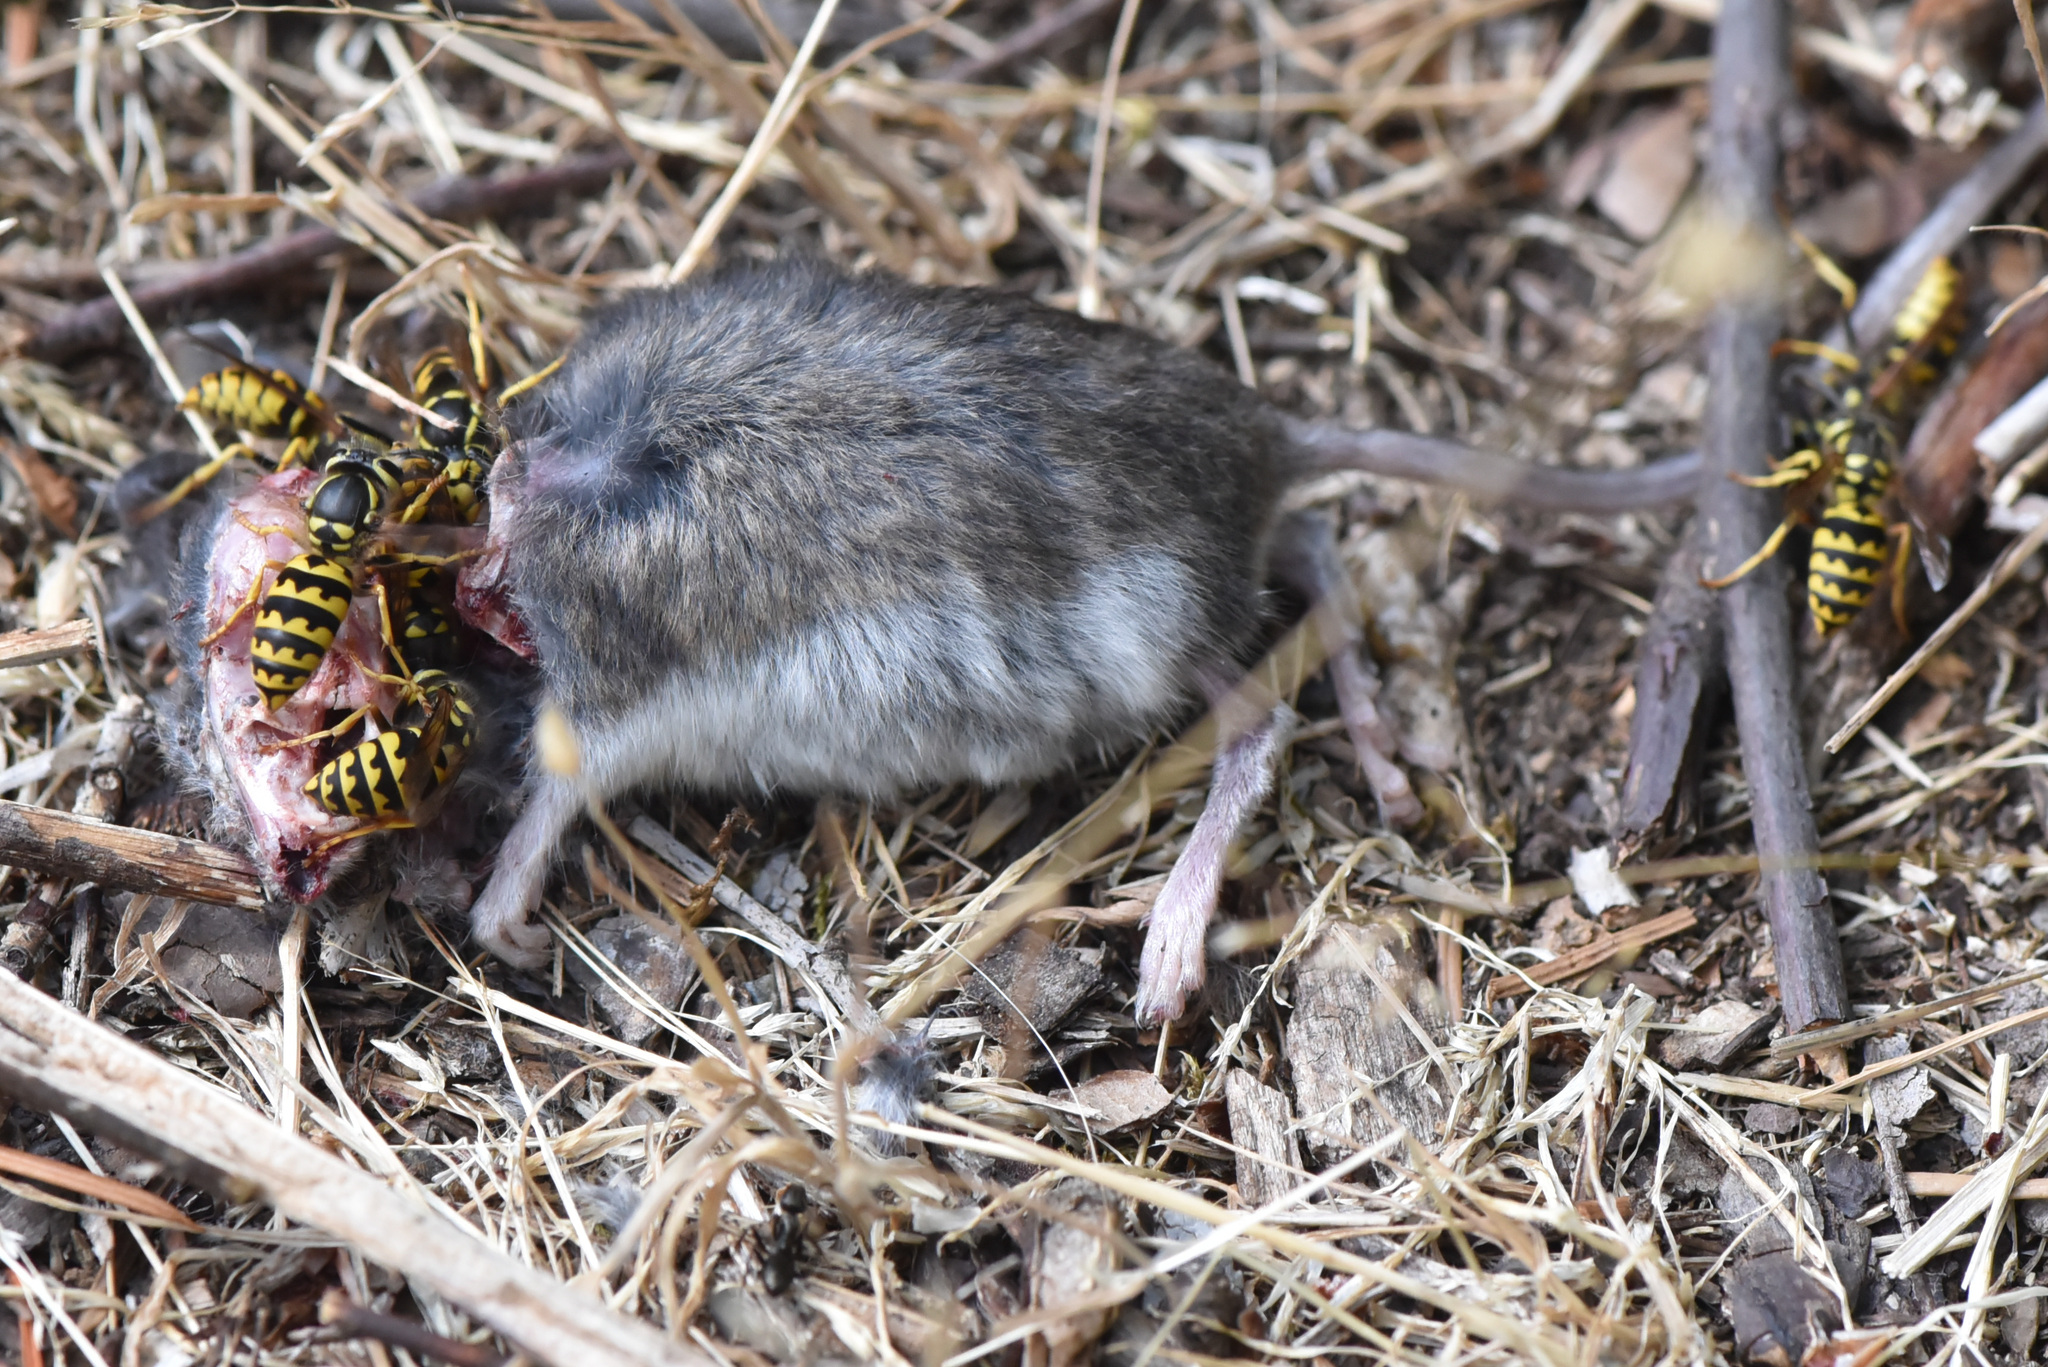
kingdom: Animalia
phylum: Arthropoda
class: Insecta
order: Hymenoptera
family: Vespidae
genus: Vespula
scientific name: Vespula pensylvanica
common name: Western yellowjacket
